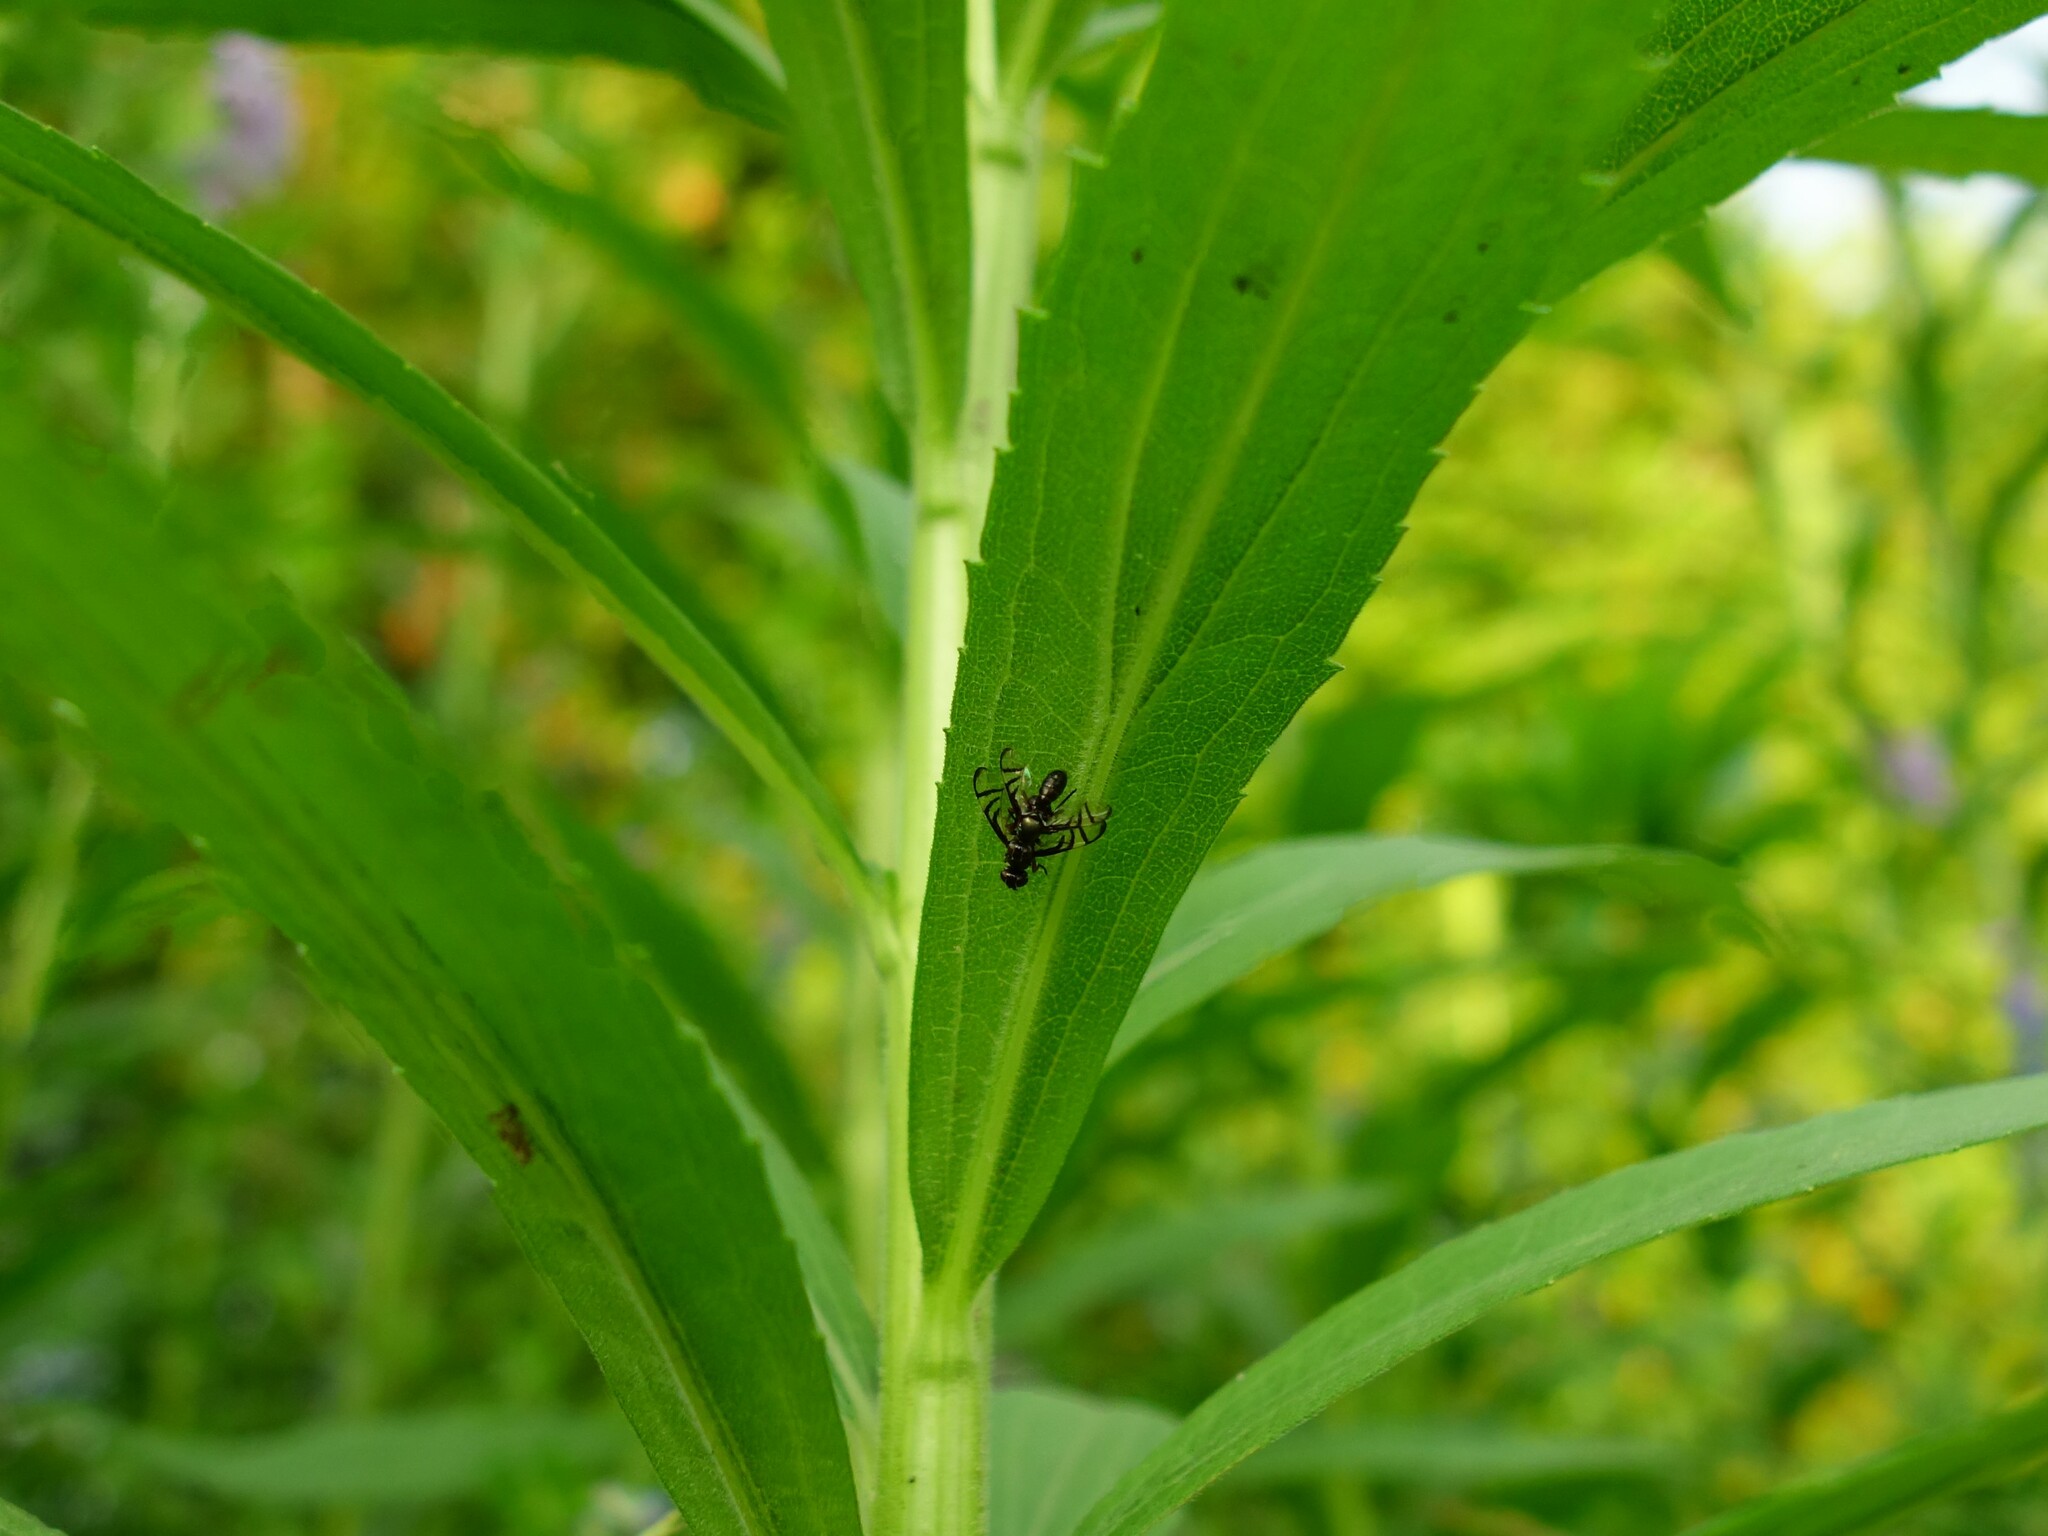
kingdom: Animalia
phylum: Arthropoda
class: Insecta
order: Diptera
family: Platystomatidae
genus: Rivellia
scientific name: Rivellia
